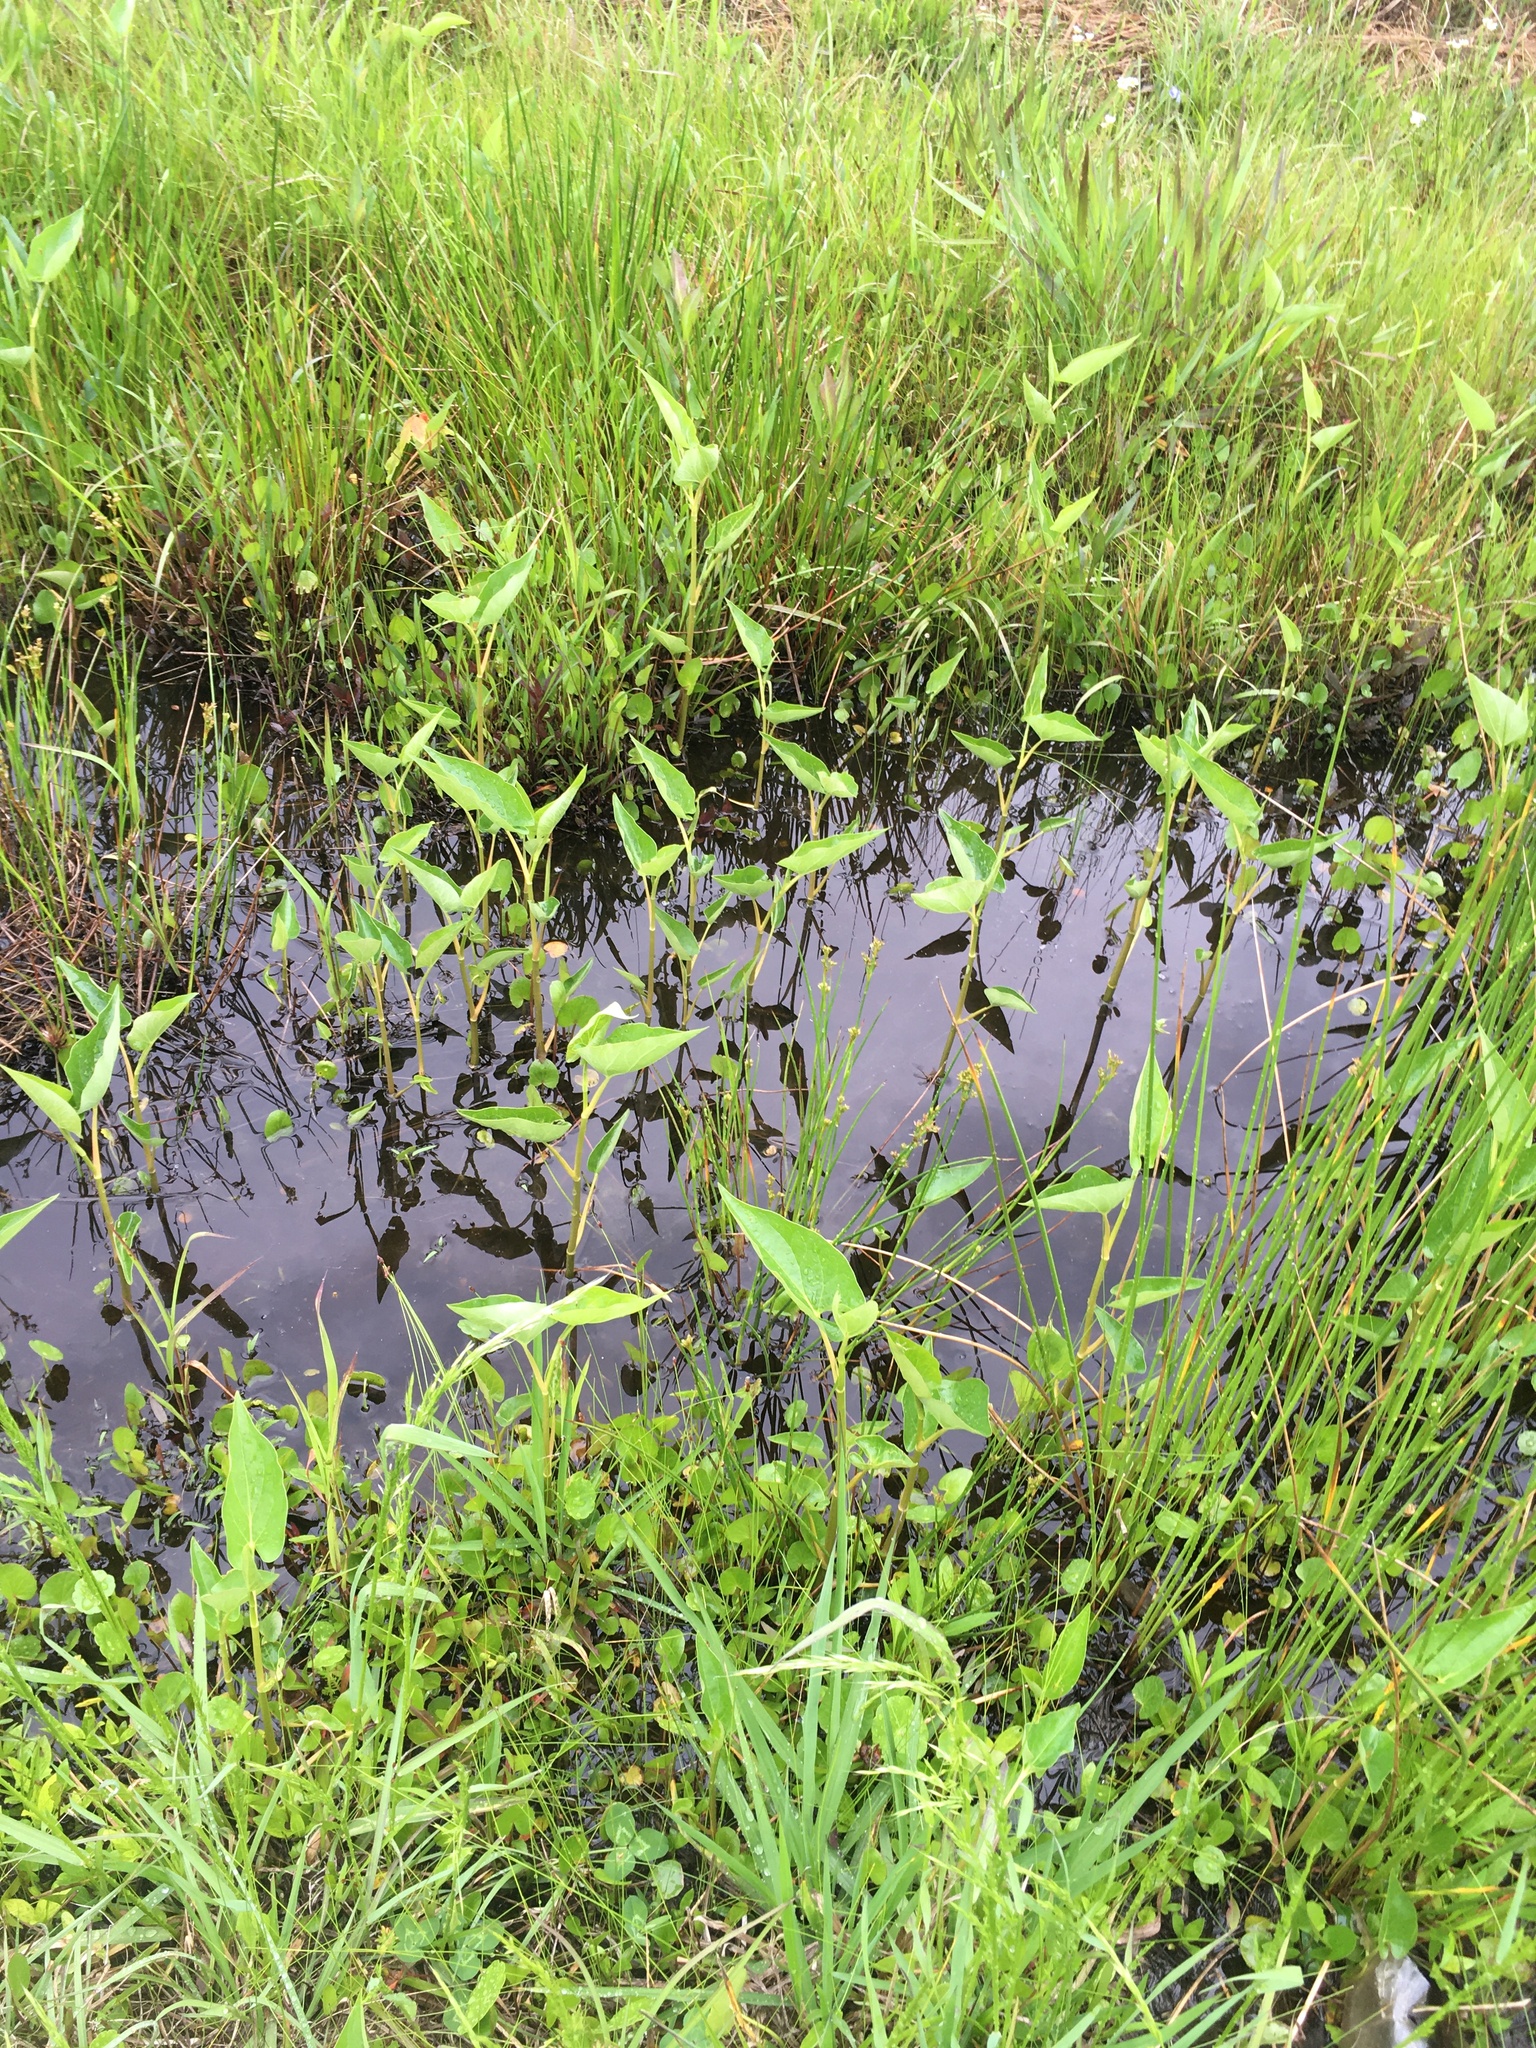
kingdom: Plantae
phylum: Tracheophyta
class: Magnoliopsida
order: Piperales
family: Saururaceae
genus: Saururus
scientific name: Saururus cernuus
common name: Lizard's-tail
